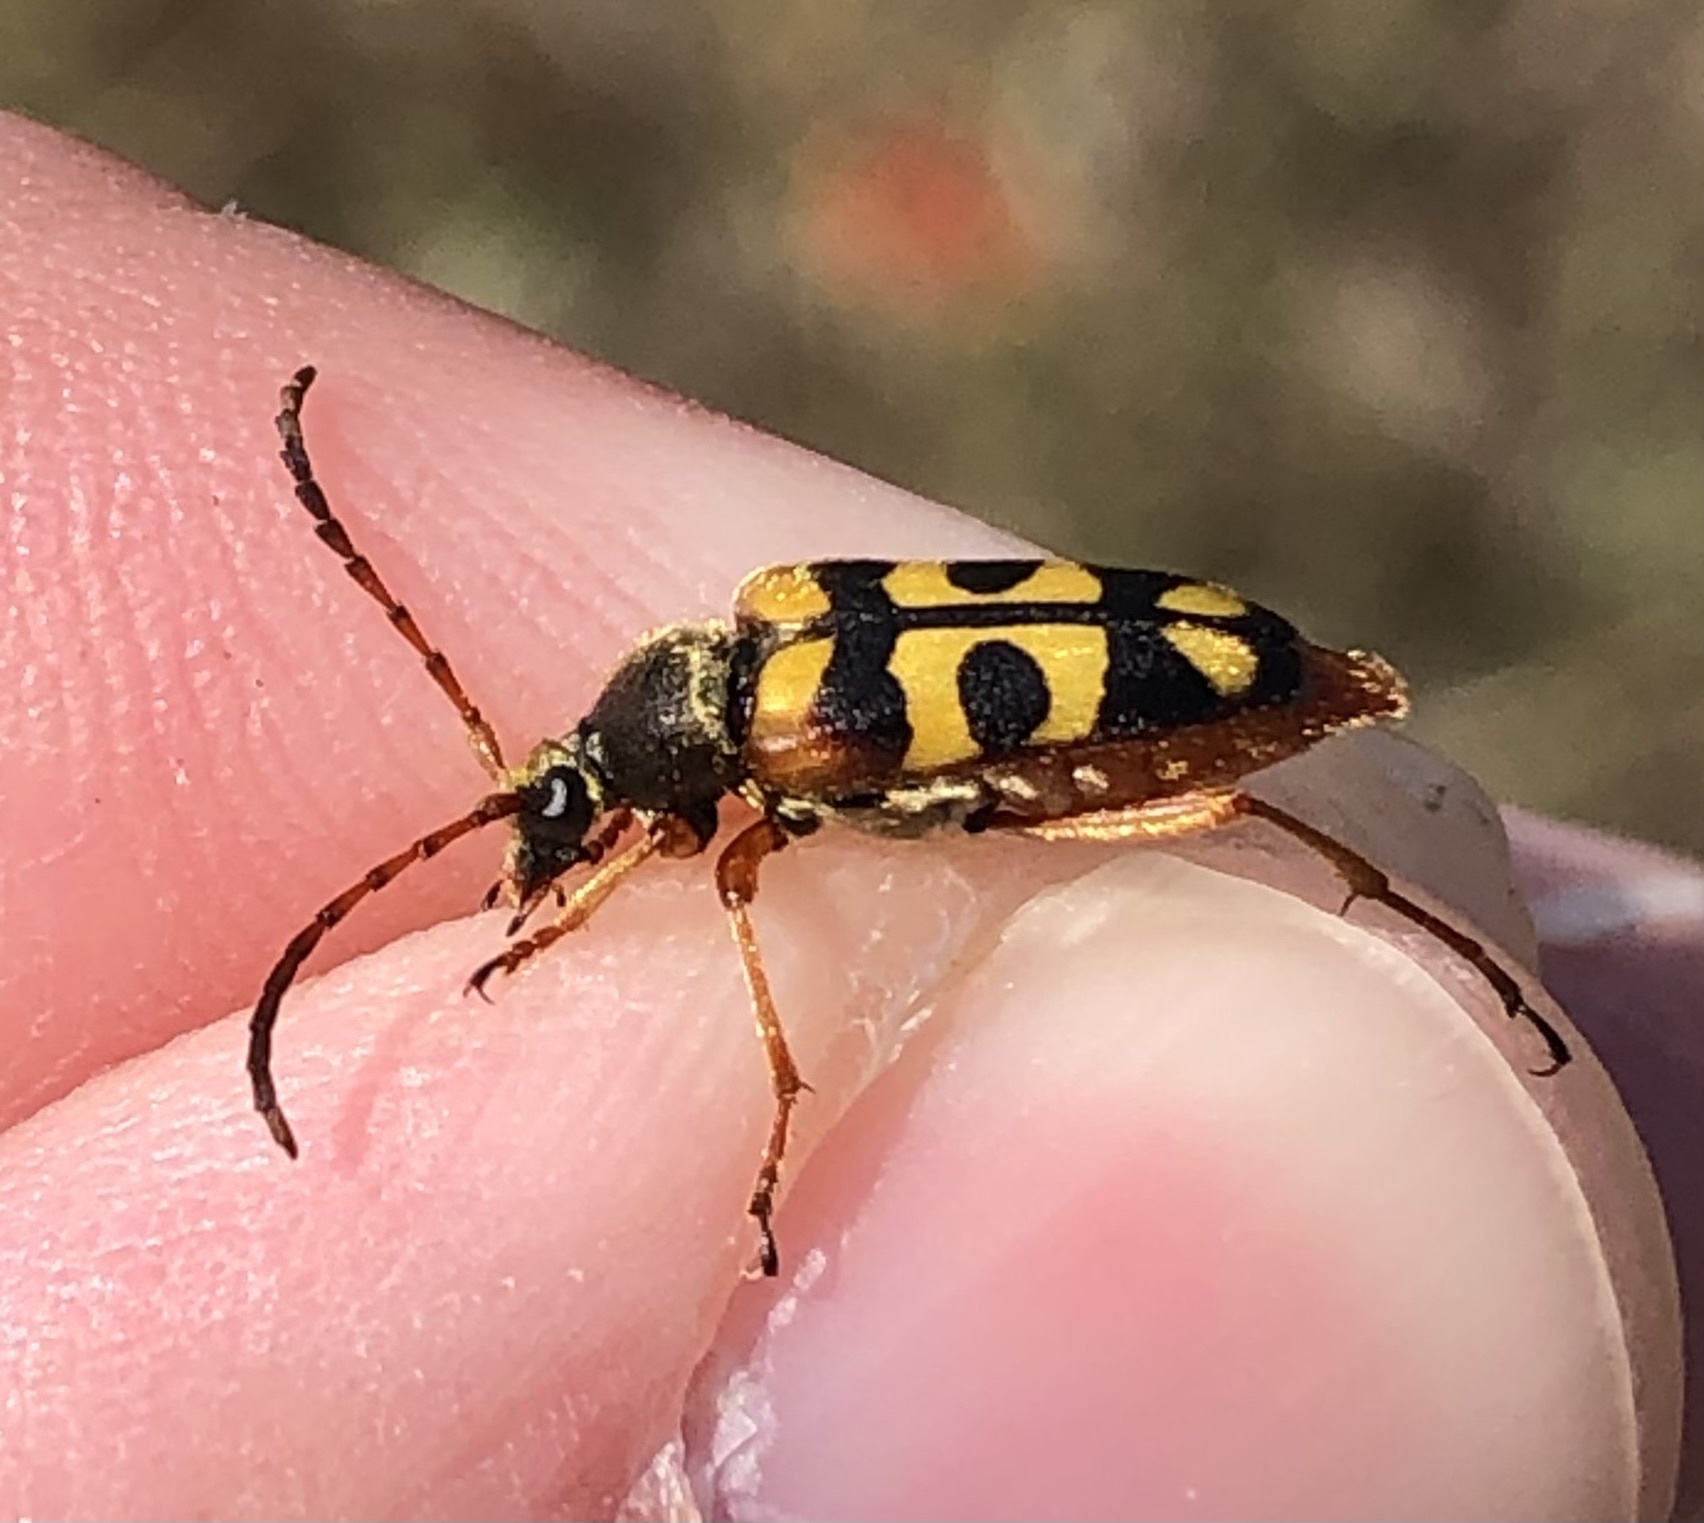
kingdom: Animalia
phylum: Arthropoda
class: Insecta
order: Coleoptera
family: Cerambycidae
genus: Typocerus
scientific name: Typocerus sinuatus
